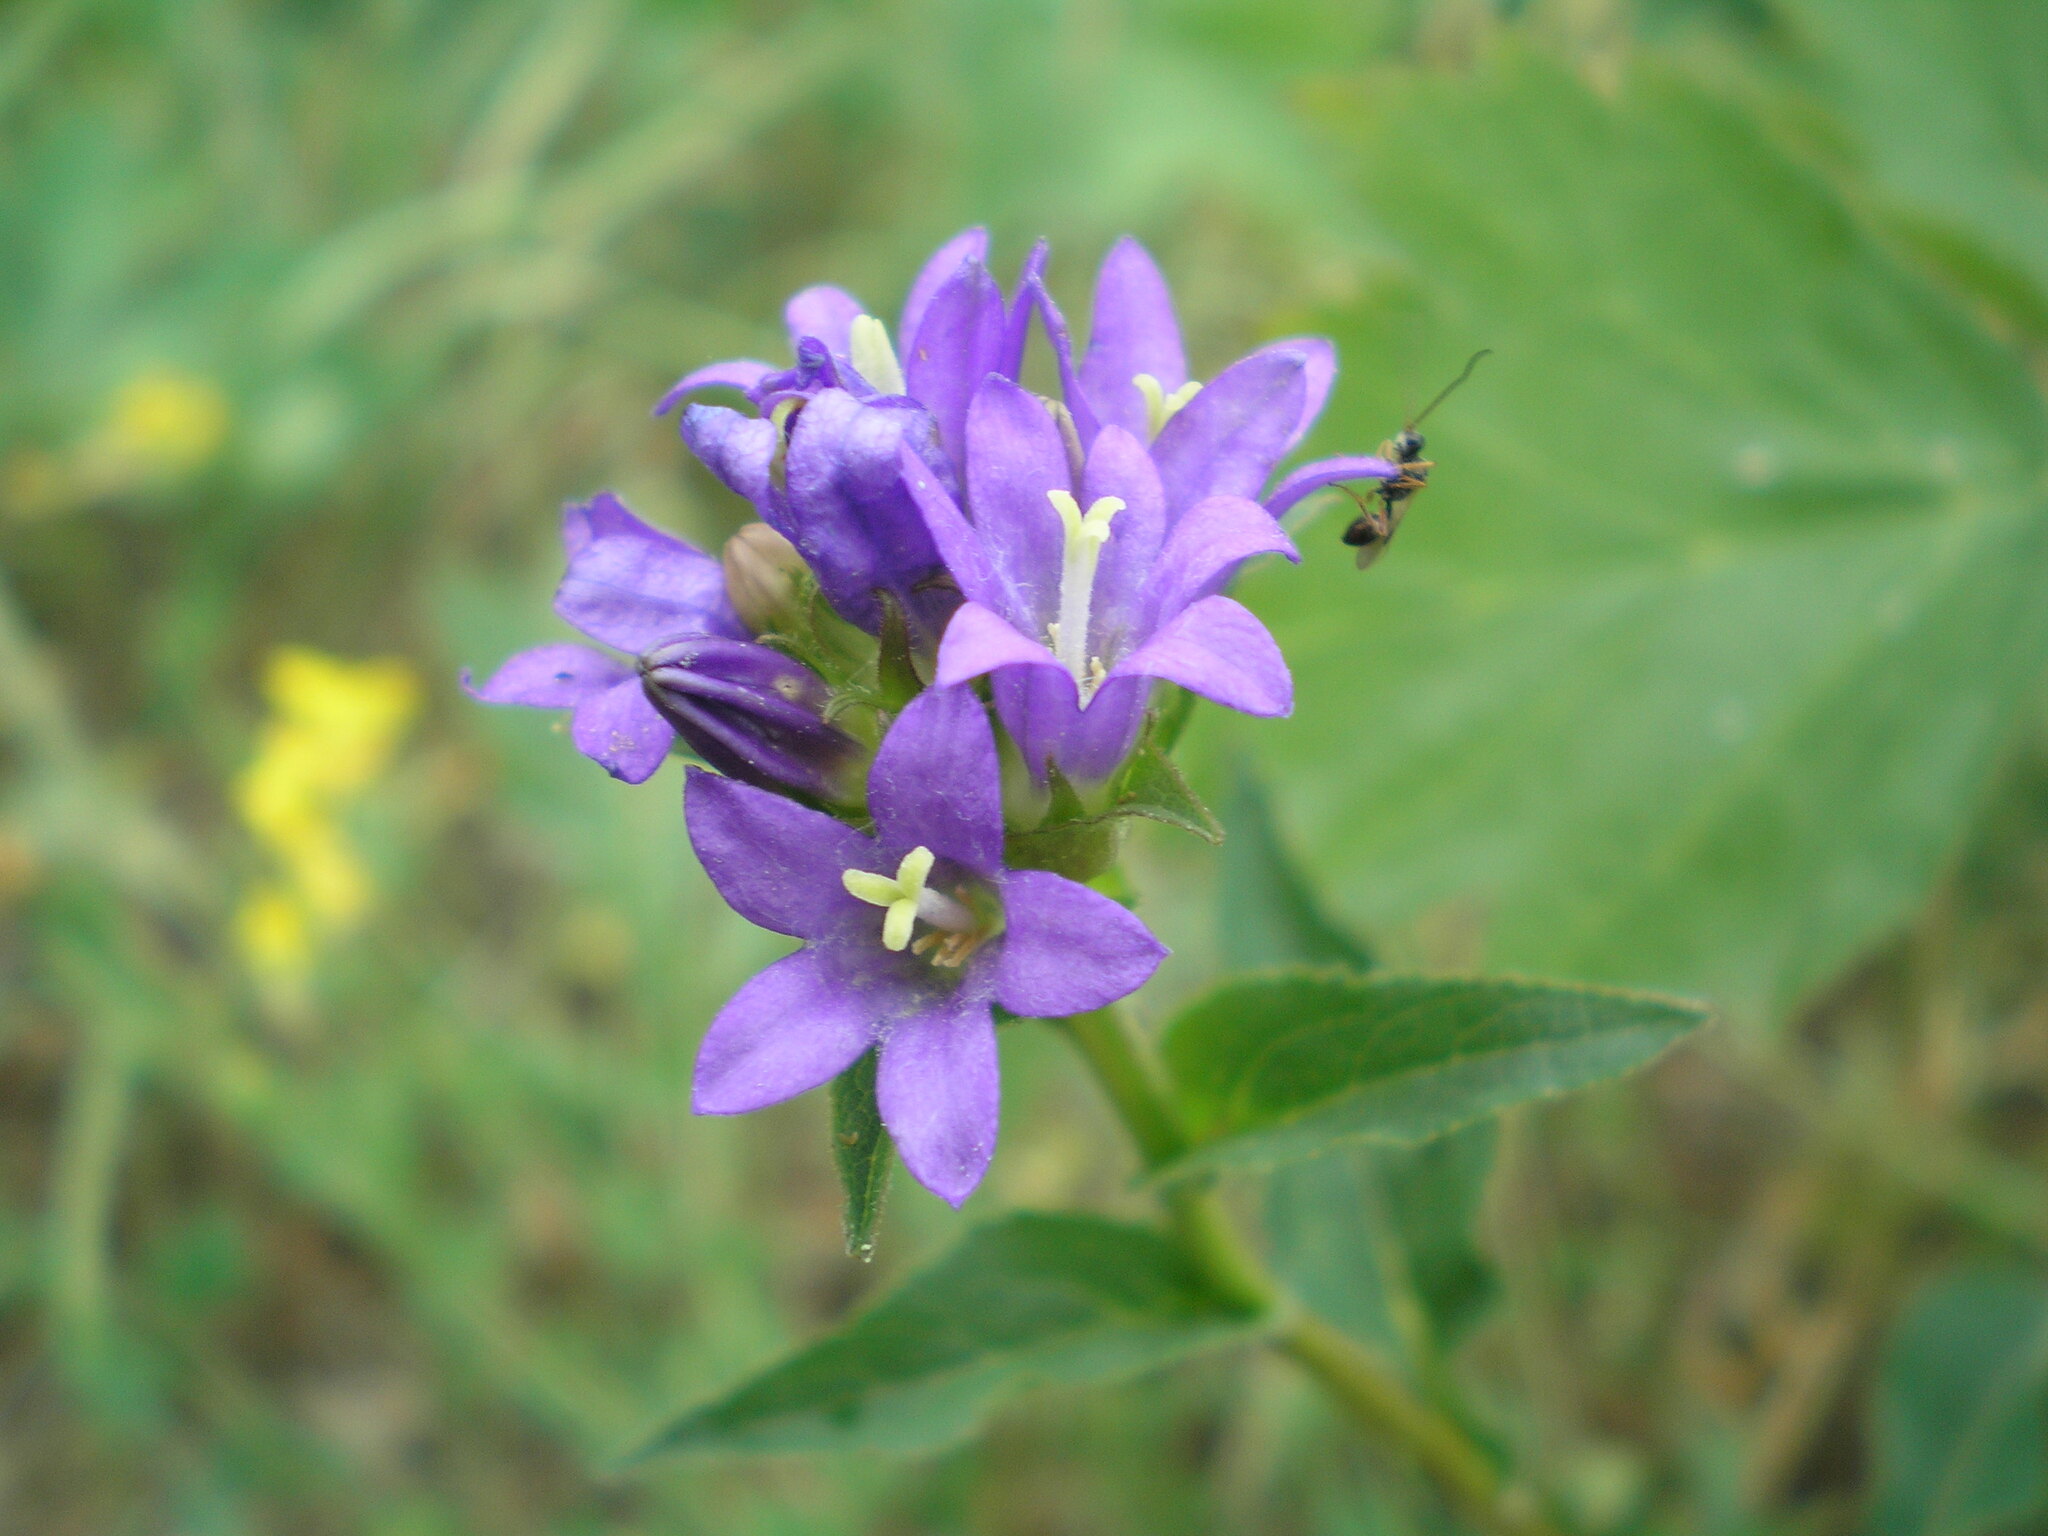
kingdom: Plantae
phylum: Tracheophyta
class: Magnoliopsida
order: Asterales
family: Campanulaceae
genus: Campanula
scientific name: Campanula glomerata
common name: Clustered bellflower
